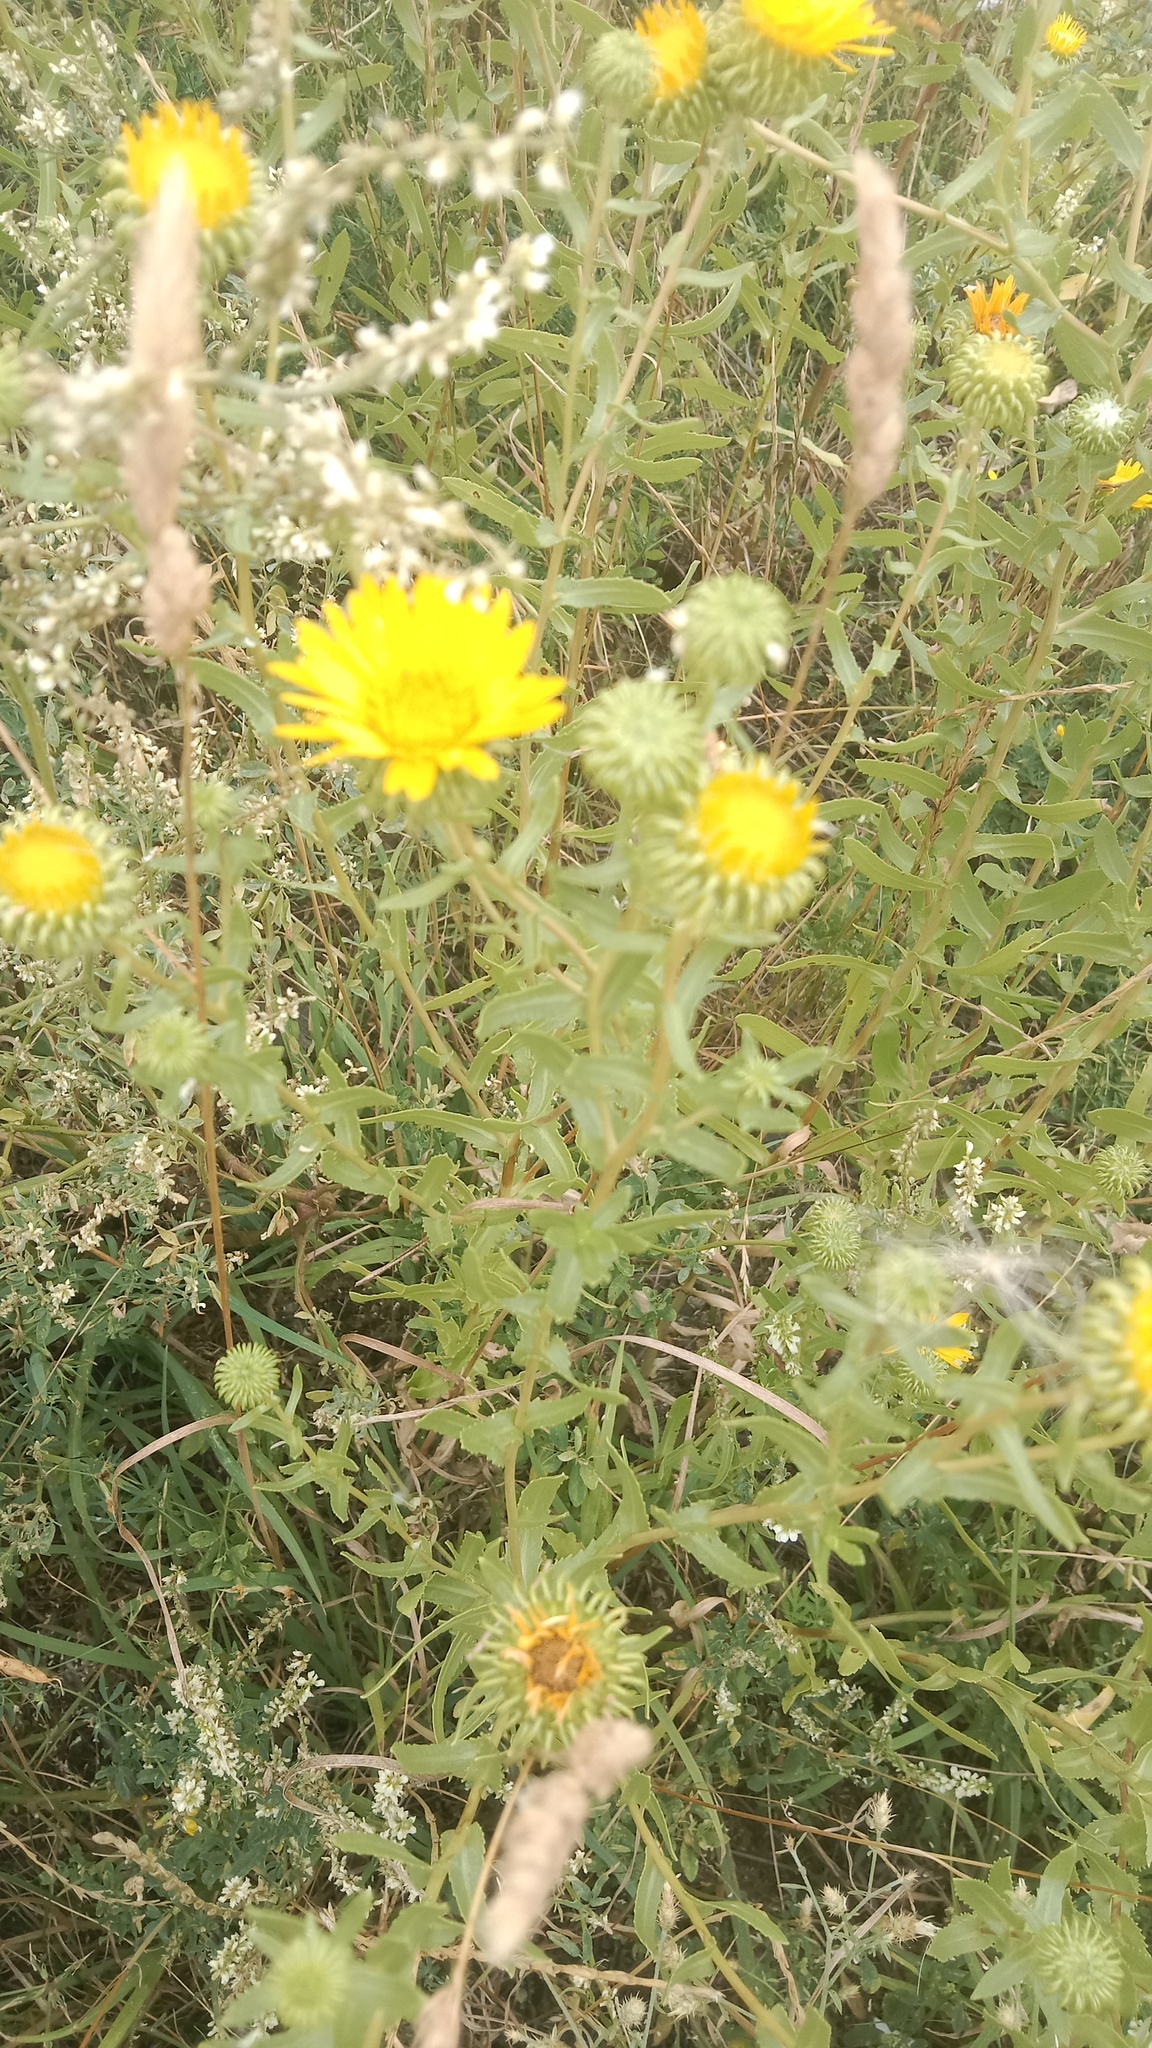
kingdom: Plantae
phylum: Tracheophyta
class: Magnoliopsida
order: Asterales
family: Asteraceae
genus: Grindelia
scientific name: Grindelia squarrosa
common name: Curly-cup gumweed
